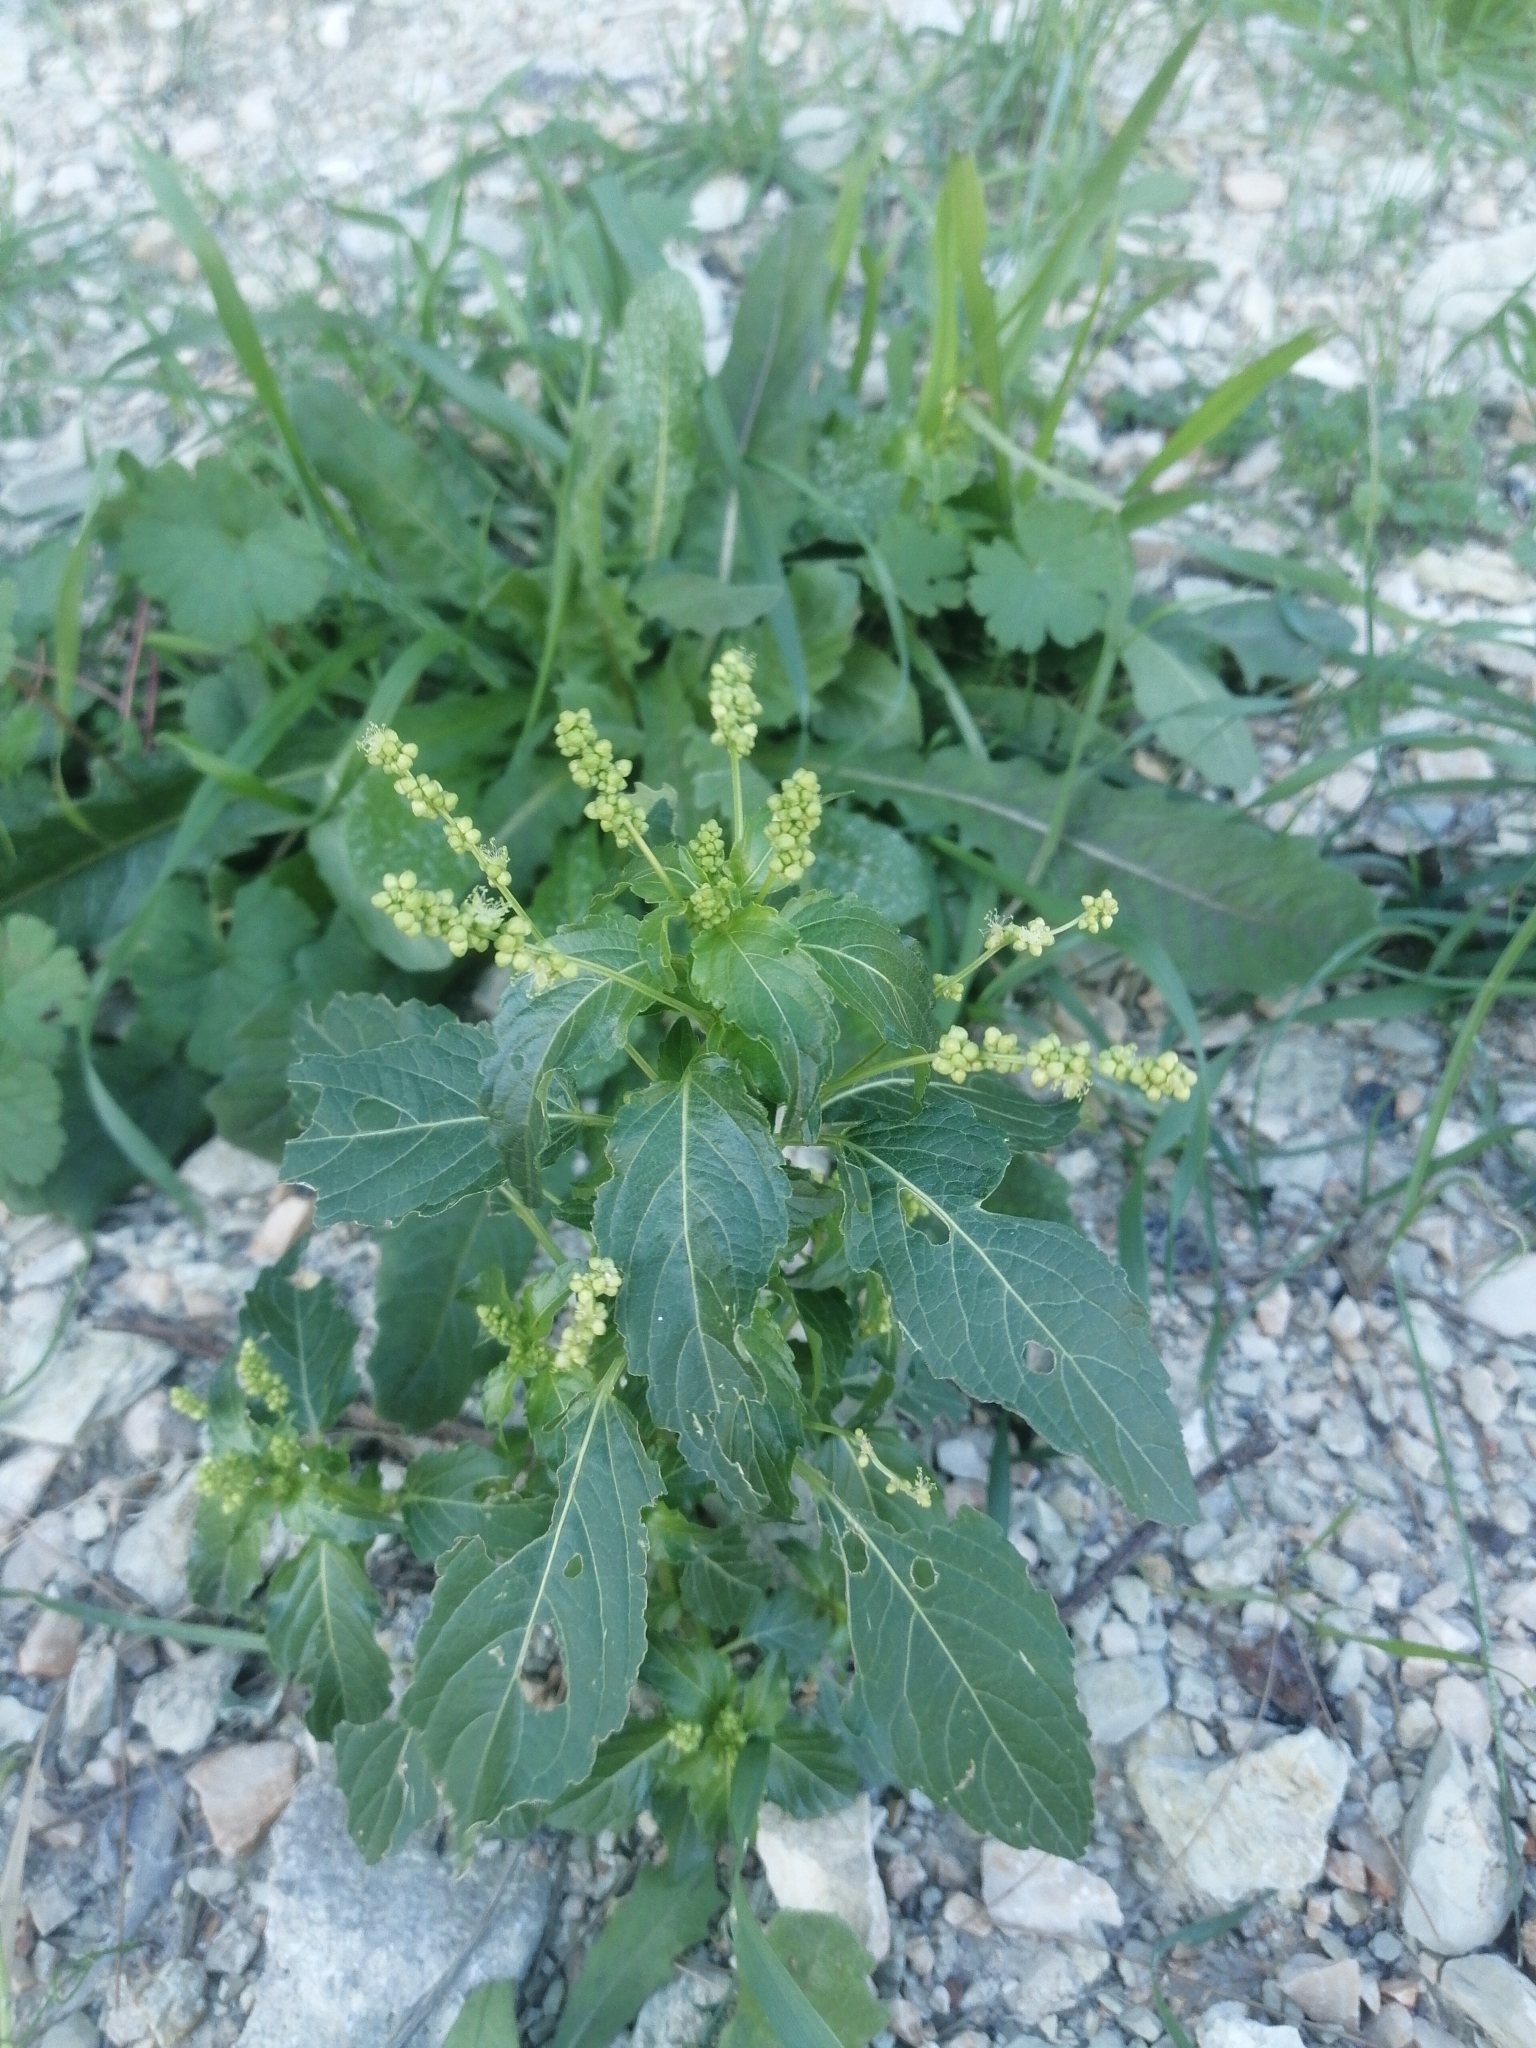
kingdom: Plantae
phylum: Tracheophyta
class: Magnoliopsida
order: Malpighiales
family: Euphorbiaceae
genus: Mercurialis
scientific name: Mercurialis annua
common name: Annual mercury
